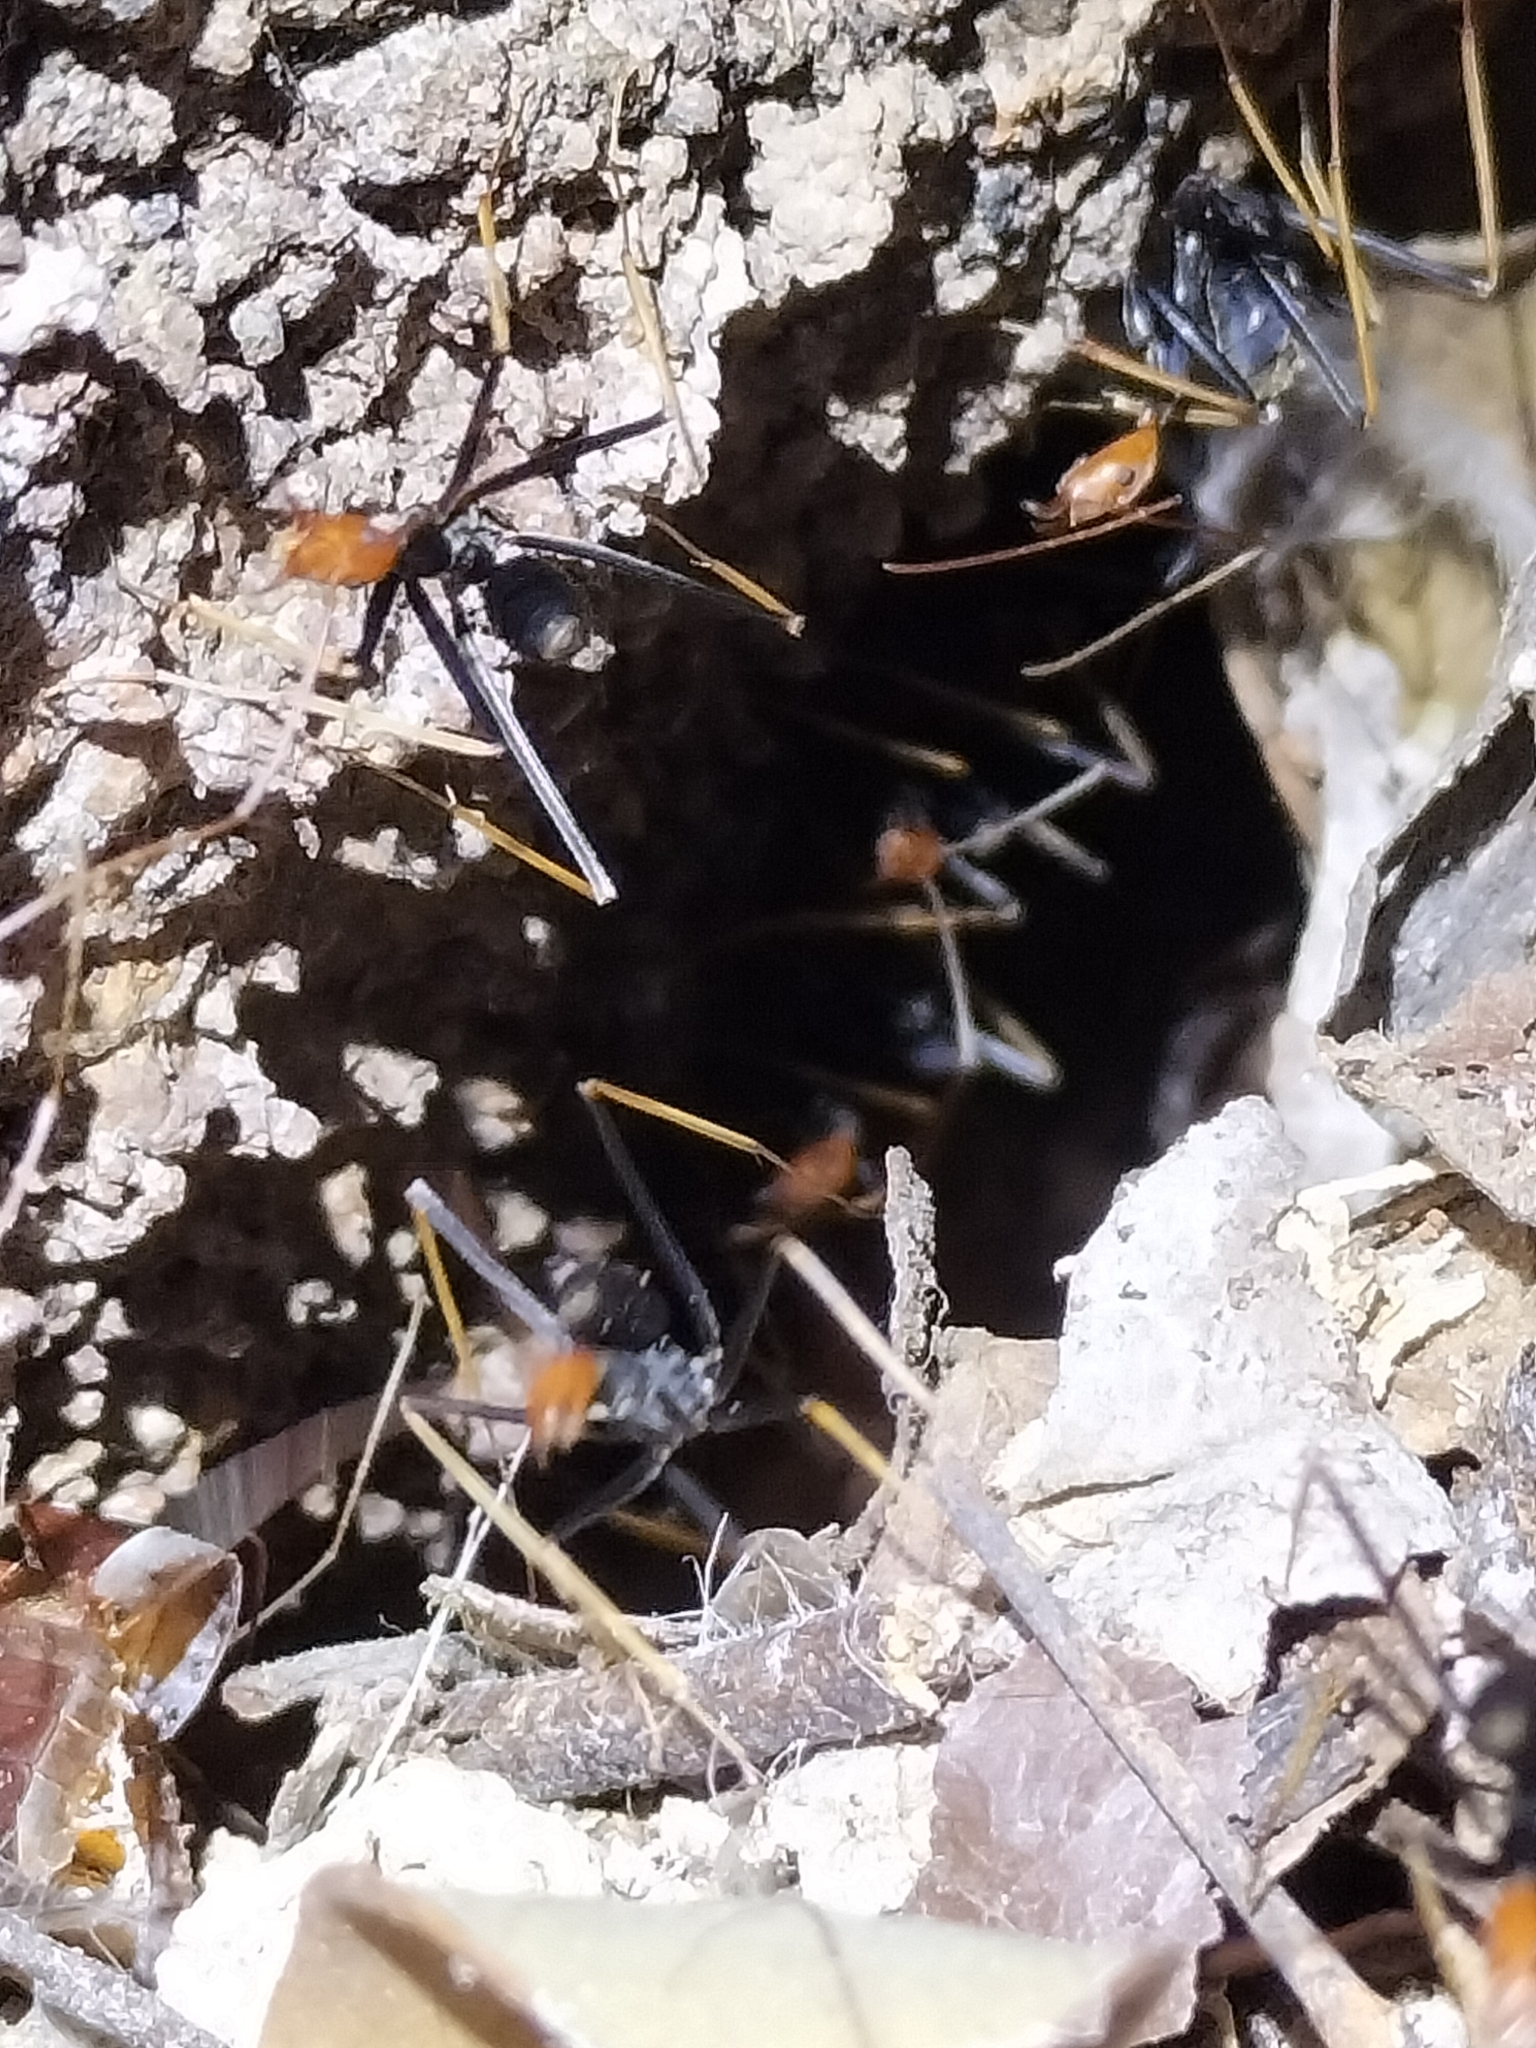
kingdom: Animalia
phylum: Arthropoda
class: Insecta
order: Hymenoptera
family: Formicidae
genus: Leptomyrmex
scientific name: Leptomyrmex ruficeps
